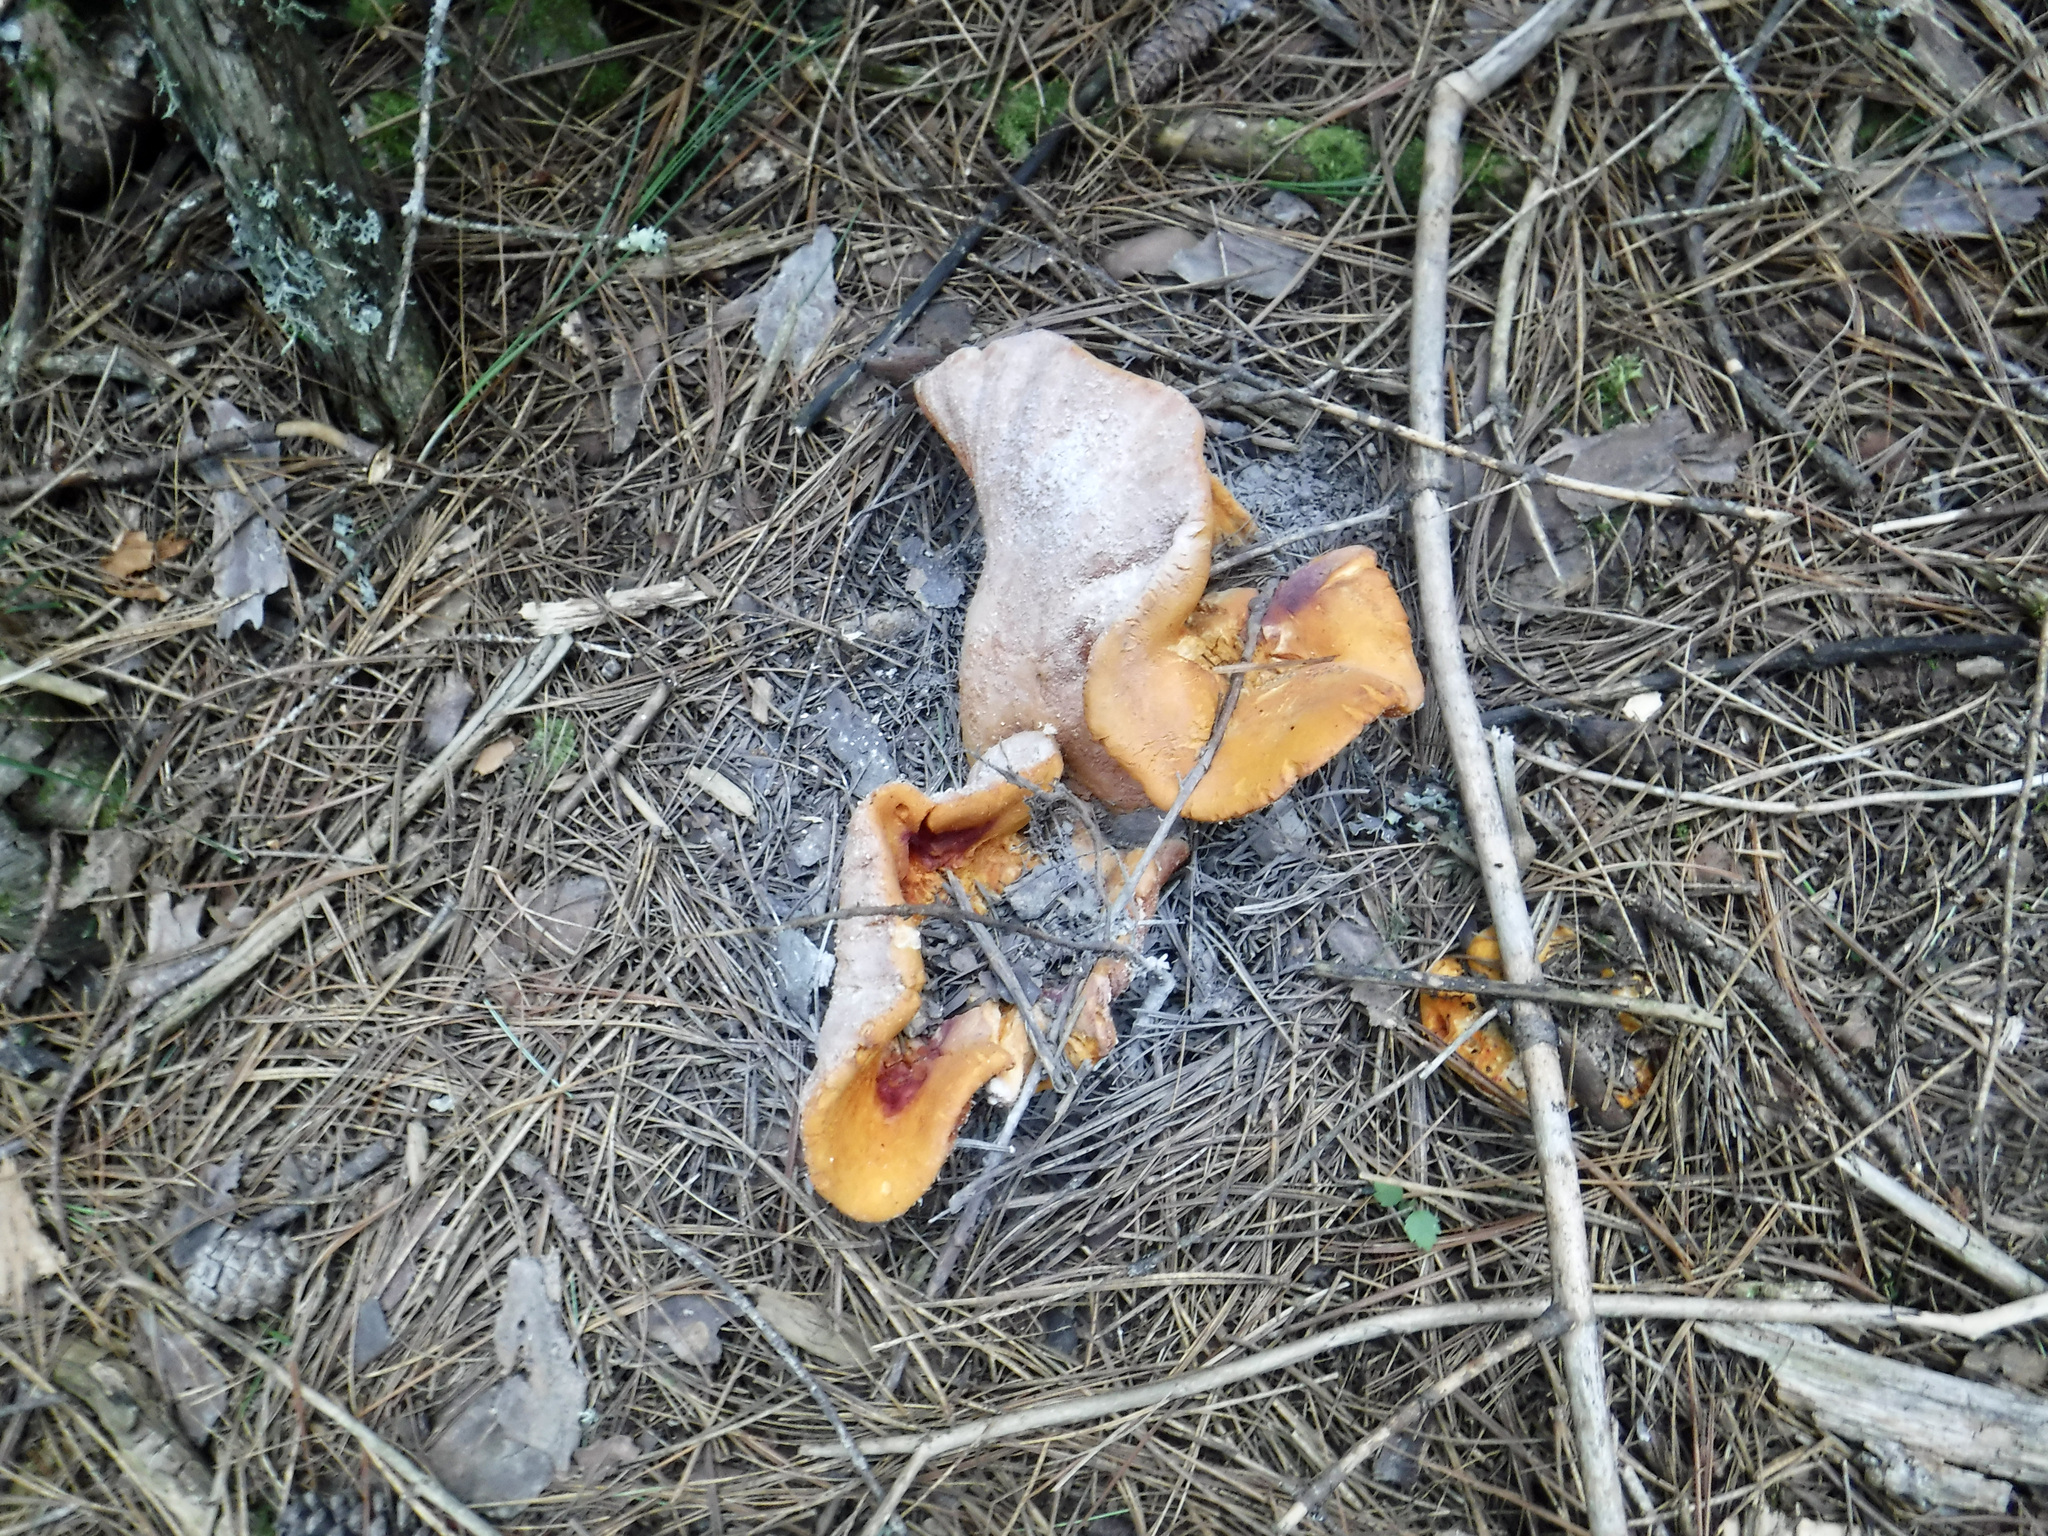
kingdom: Fungi
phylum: Ascomycota
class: Sordariomycetes
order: Hypocreales
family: Hypocreaceae
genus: Hypomyces
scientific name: Hypomyces lactifluorum
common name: Lobster mushroom
